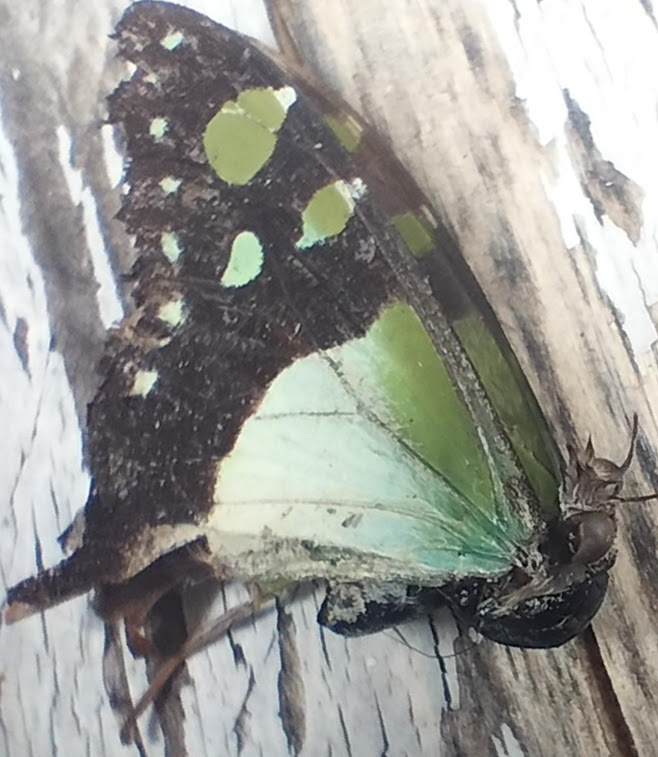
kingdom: Animalia
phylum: Arthropoda
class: Insecta
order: Lepidoptera
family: Papilionidae
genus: Graphium
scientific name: Graphium macleayanus
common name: Macleay's swallowtail
